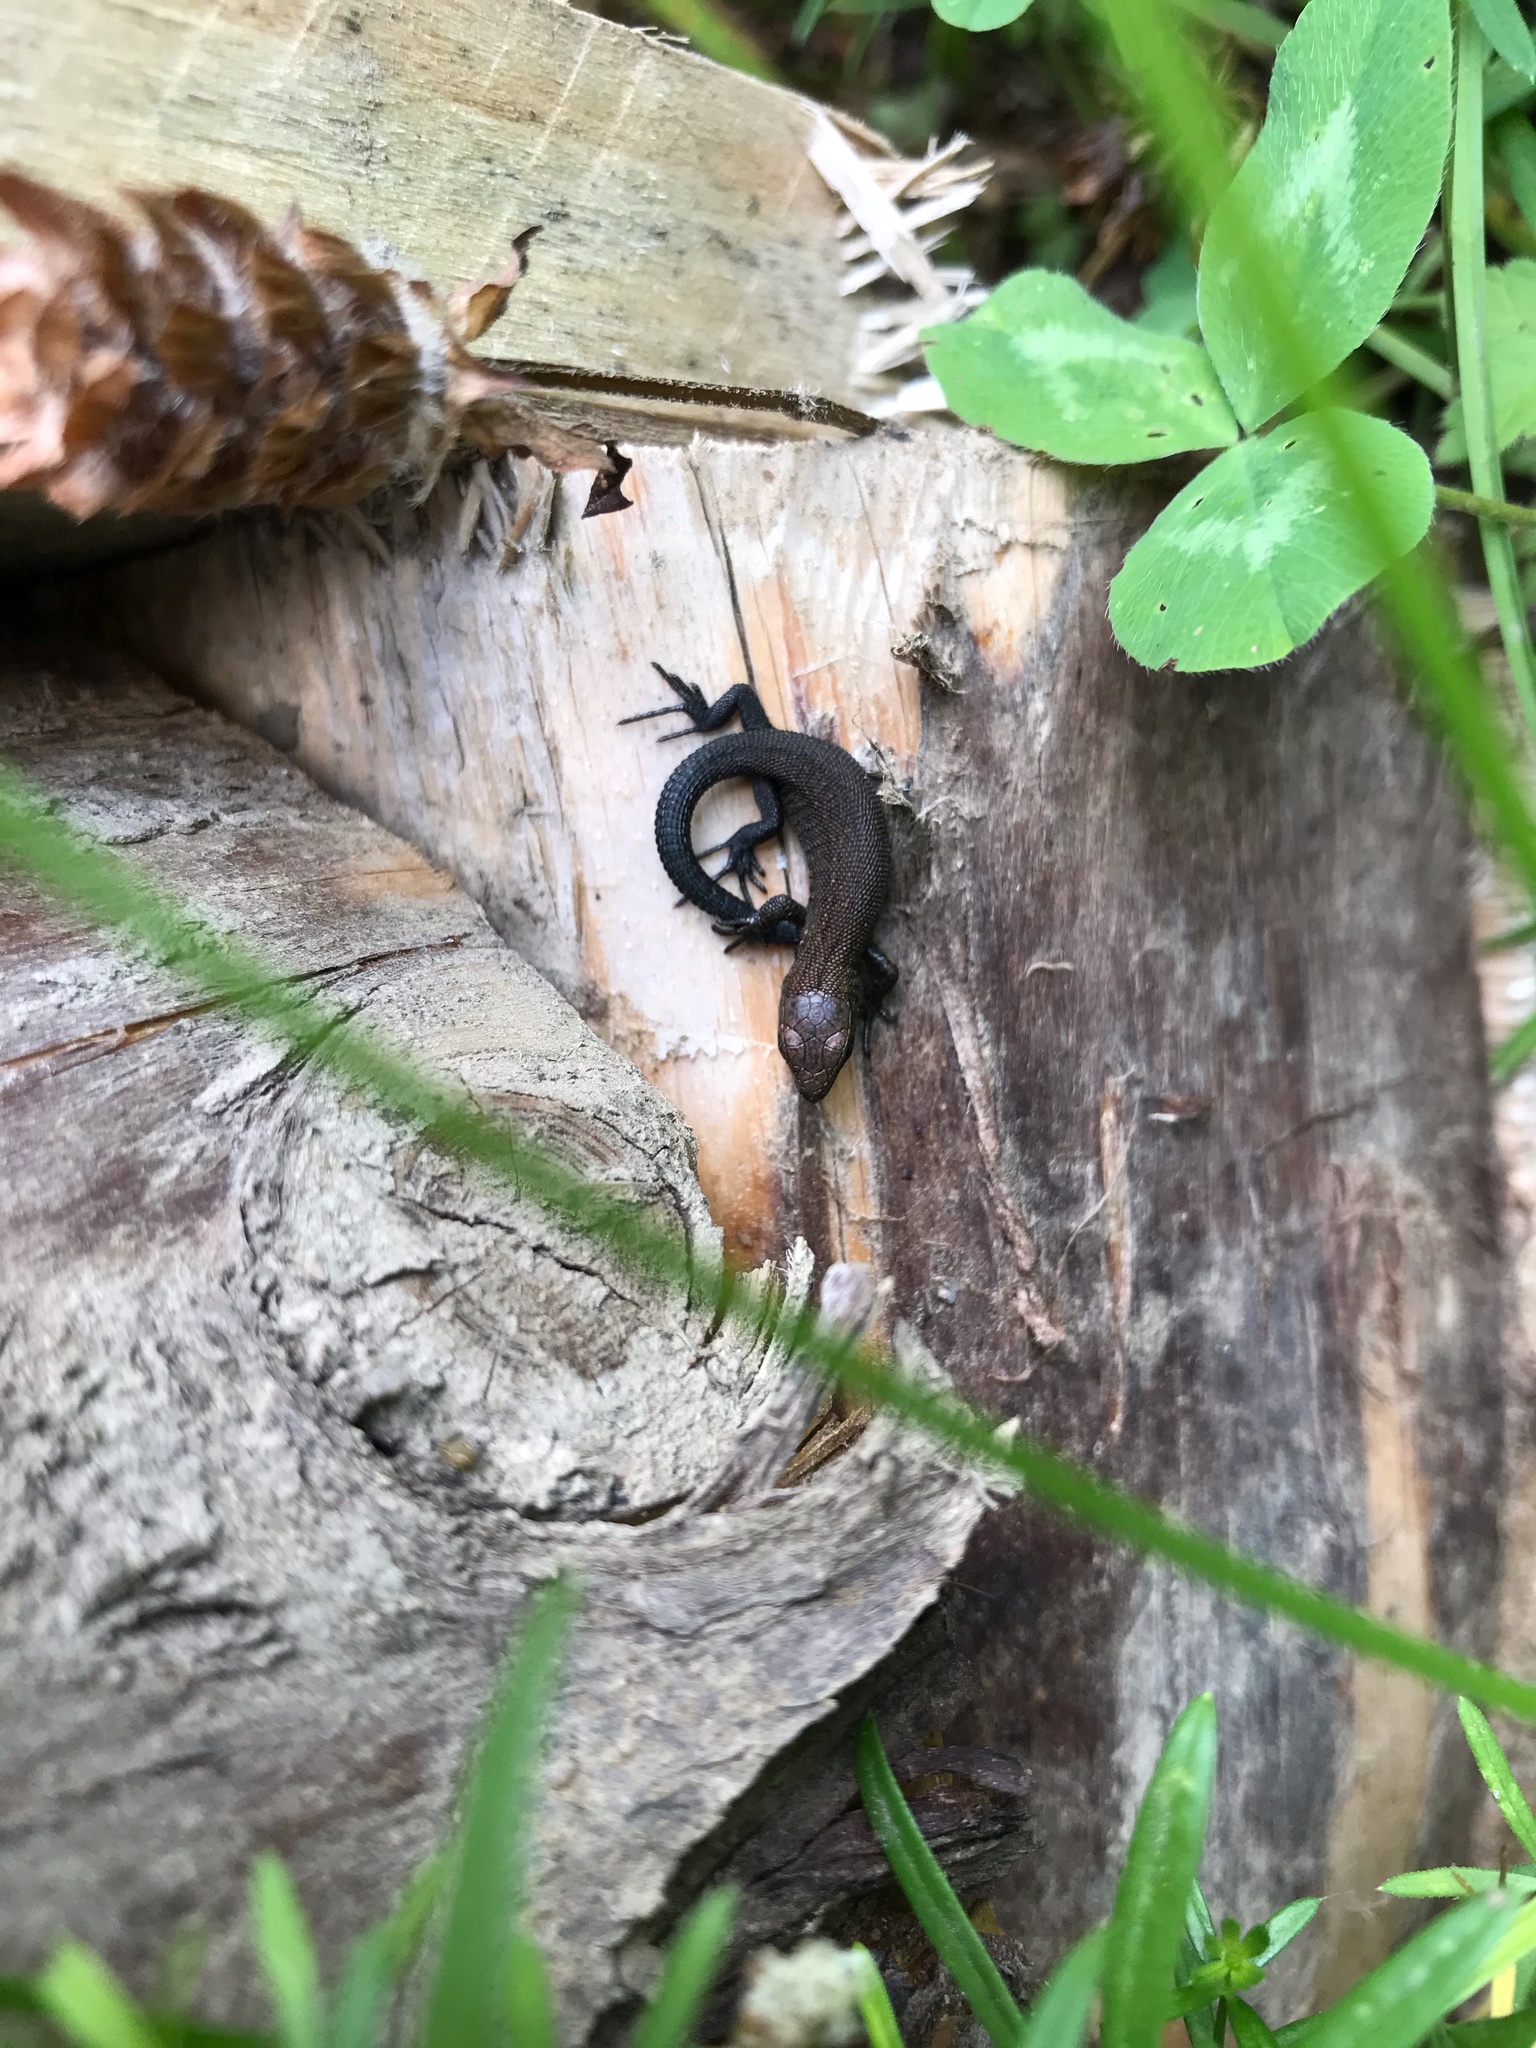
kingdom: Animalia
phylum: Chordata
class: Squamata
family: Lacertidae
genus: Zootoca
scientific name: Zootoca vivipara
